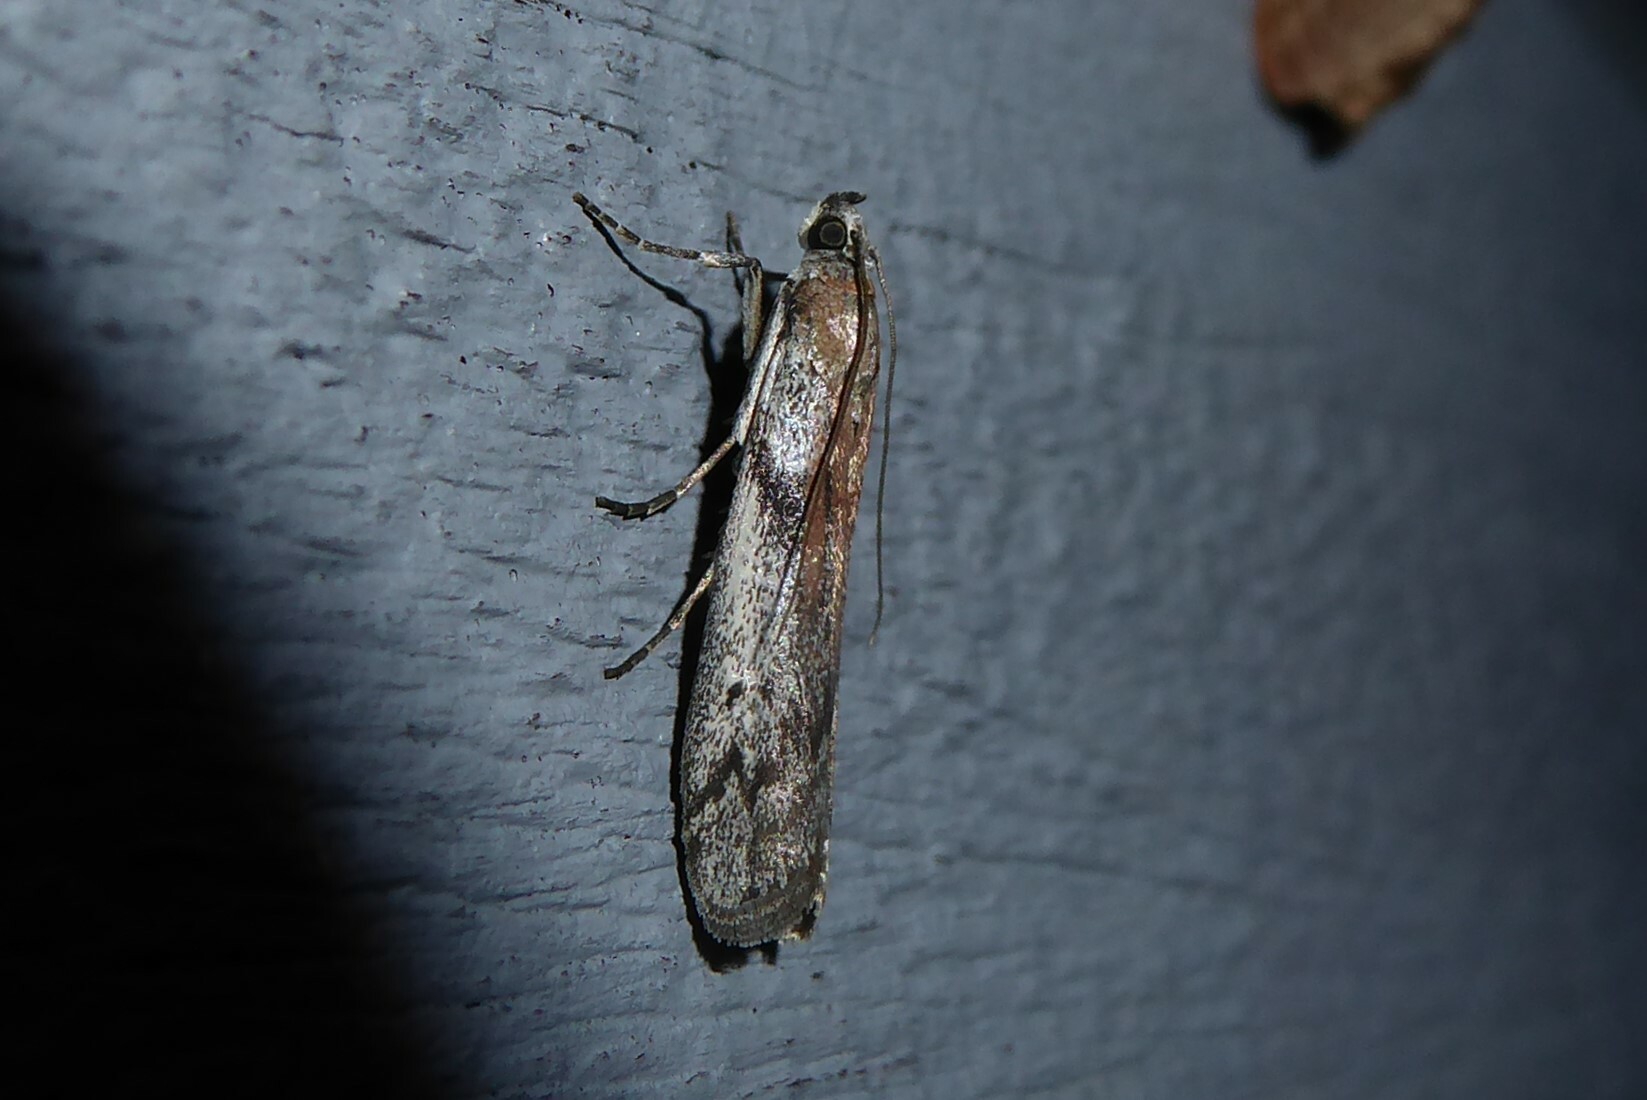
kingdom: Animalia
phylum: Arthropoda
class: Insecta
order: Lepidoptera
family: Pyralidae
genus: Patagoniodes
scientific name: Patagoniodes farinaria
